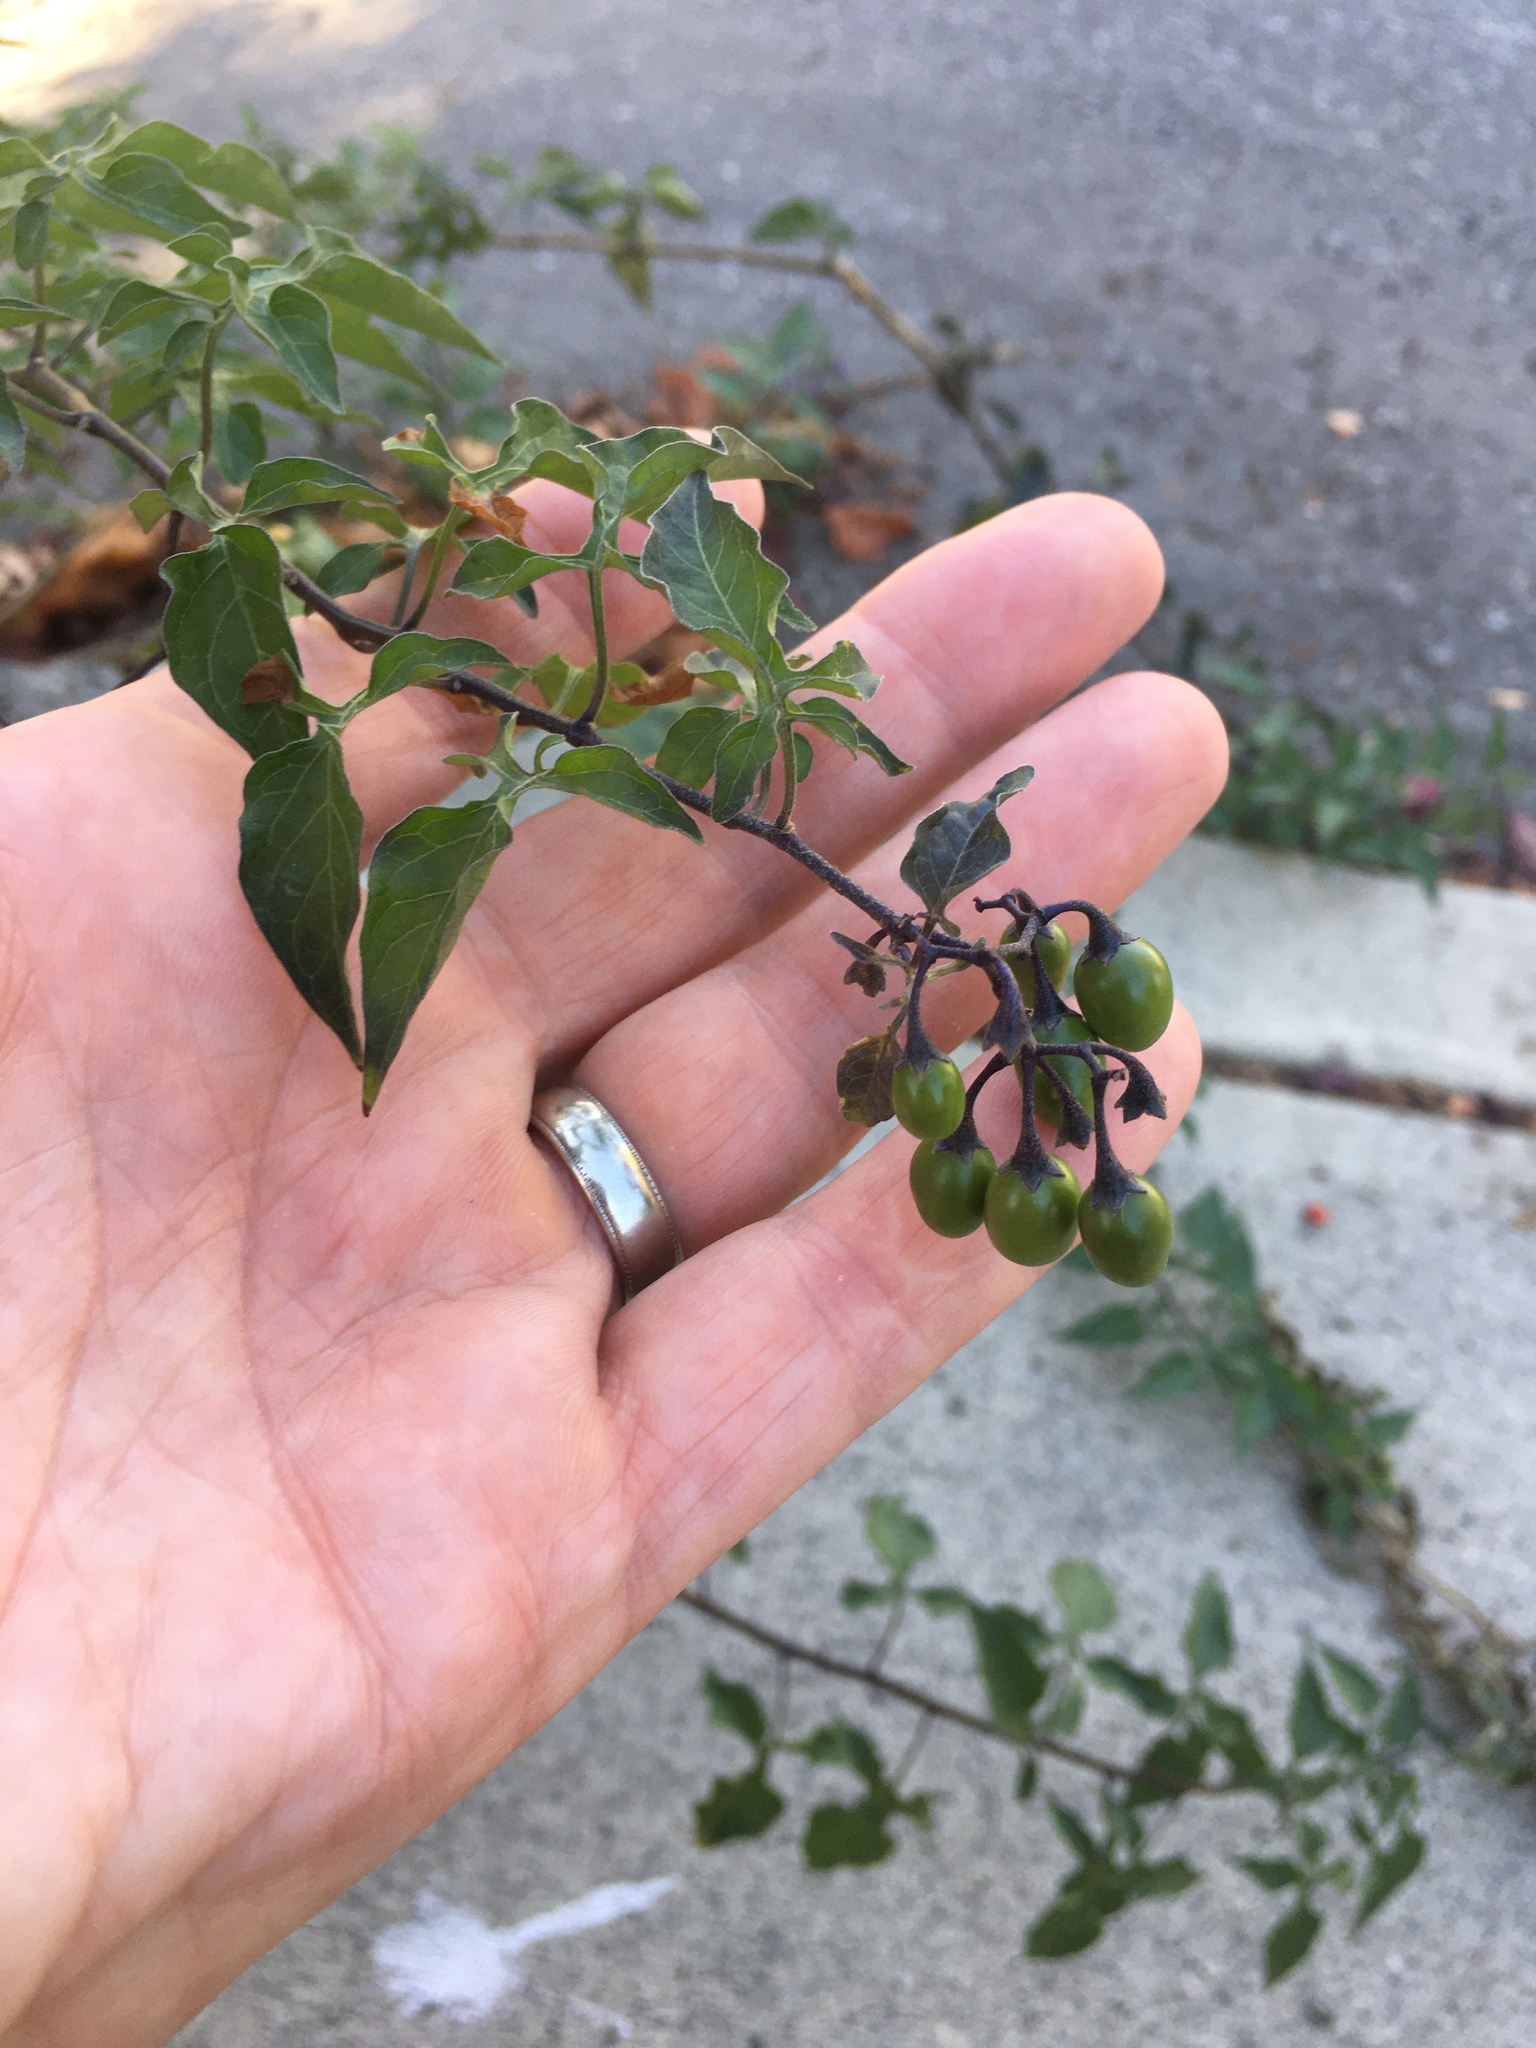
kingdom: Plantae
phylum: Tracheophyta
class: Magnoliopsida
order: Solanales
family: Solanaceae
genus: Solanum
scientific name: Solanum dulcamara
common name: Climbing nightshade
